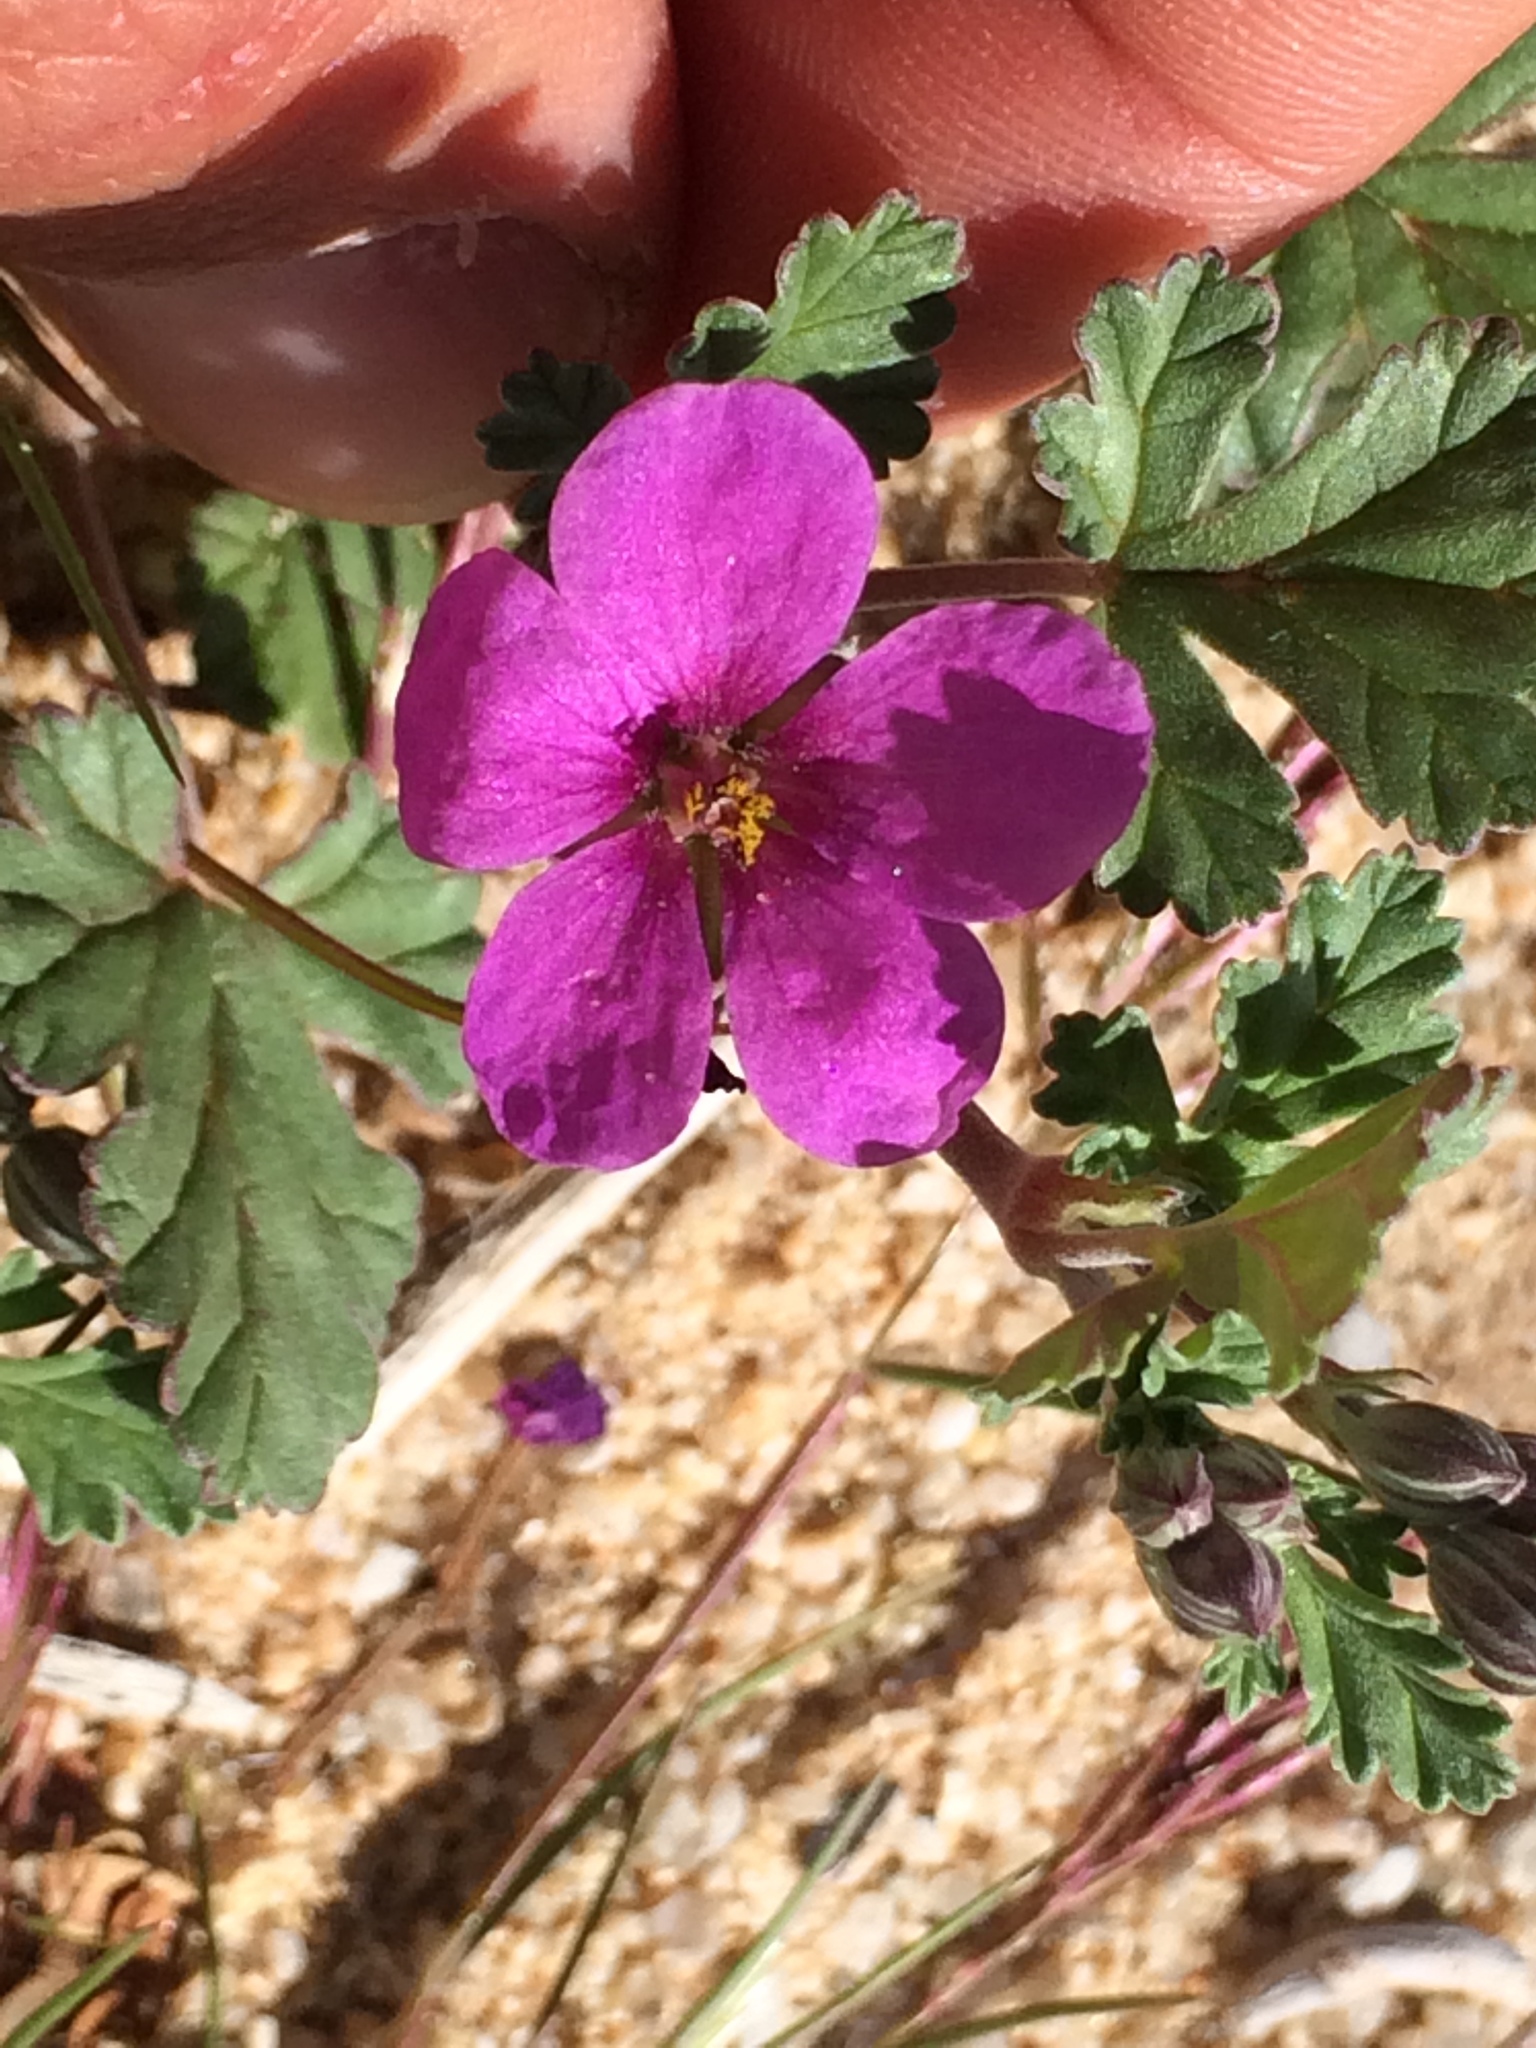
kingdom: Plantae
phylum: Tracheophyta
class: Magnoliopsida
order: Geraniales
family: Geraniaceae
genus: Erodium
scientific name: Erodium texanum
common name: Texas stork's-bill
